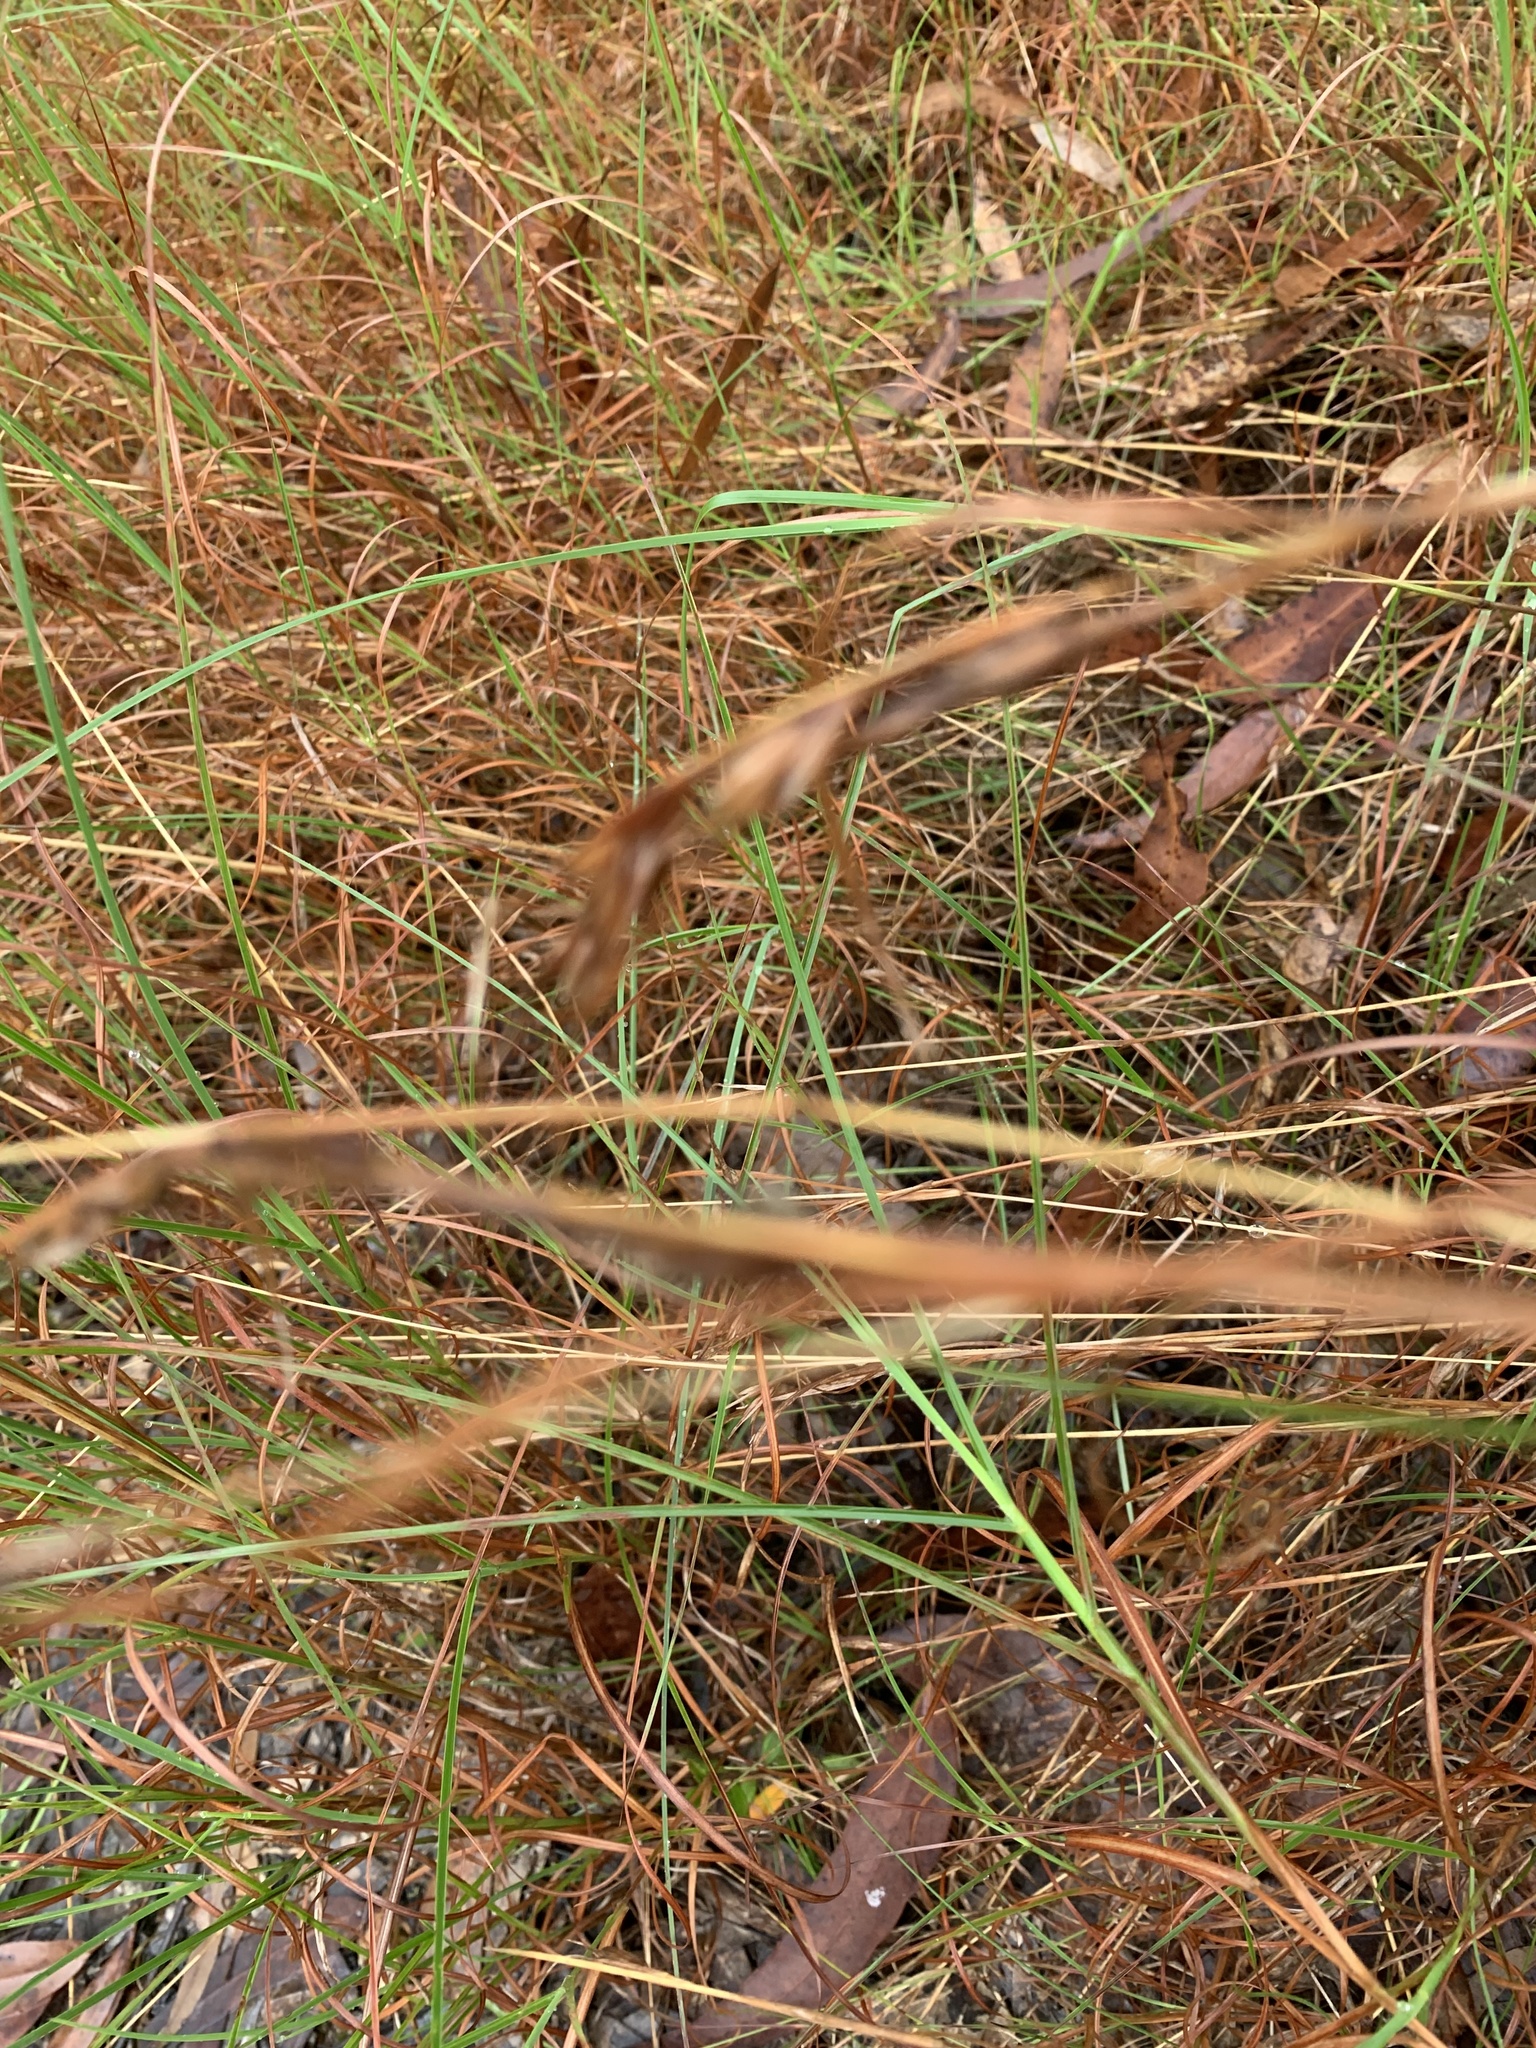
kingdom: Plantae
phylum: Tracheophyta
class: Liliopsida
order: Poales
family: Poaceae
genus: Themeda
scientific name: Themeda triandra
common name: Kangaroo grass
